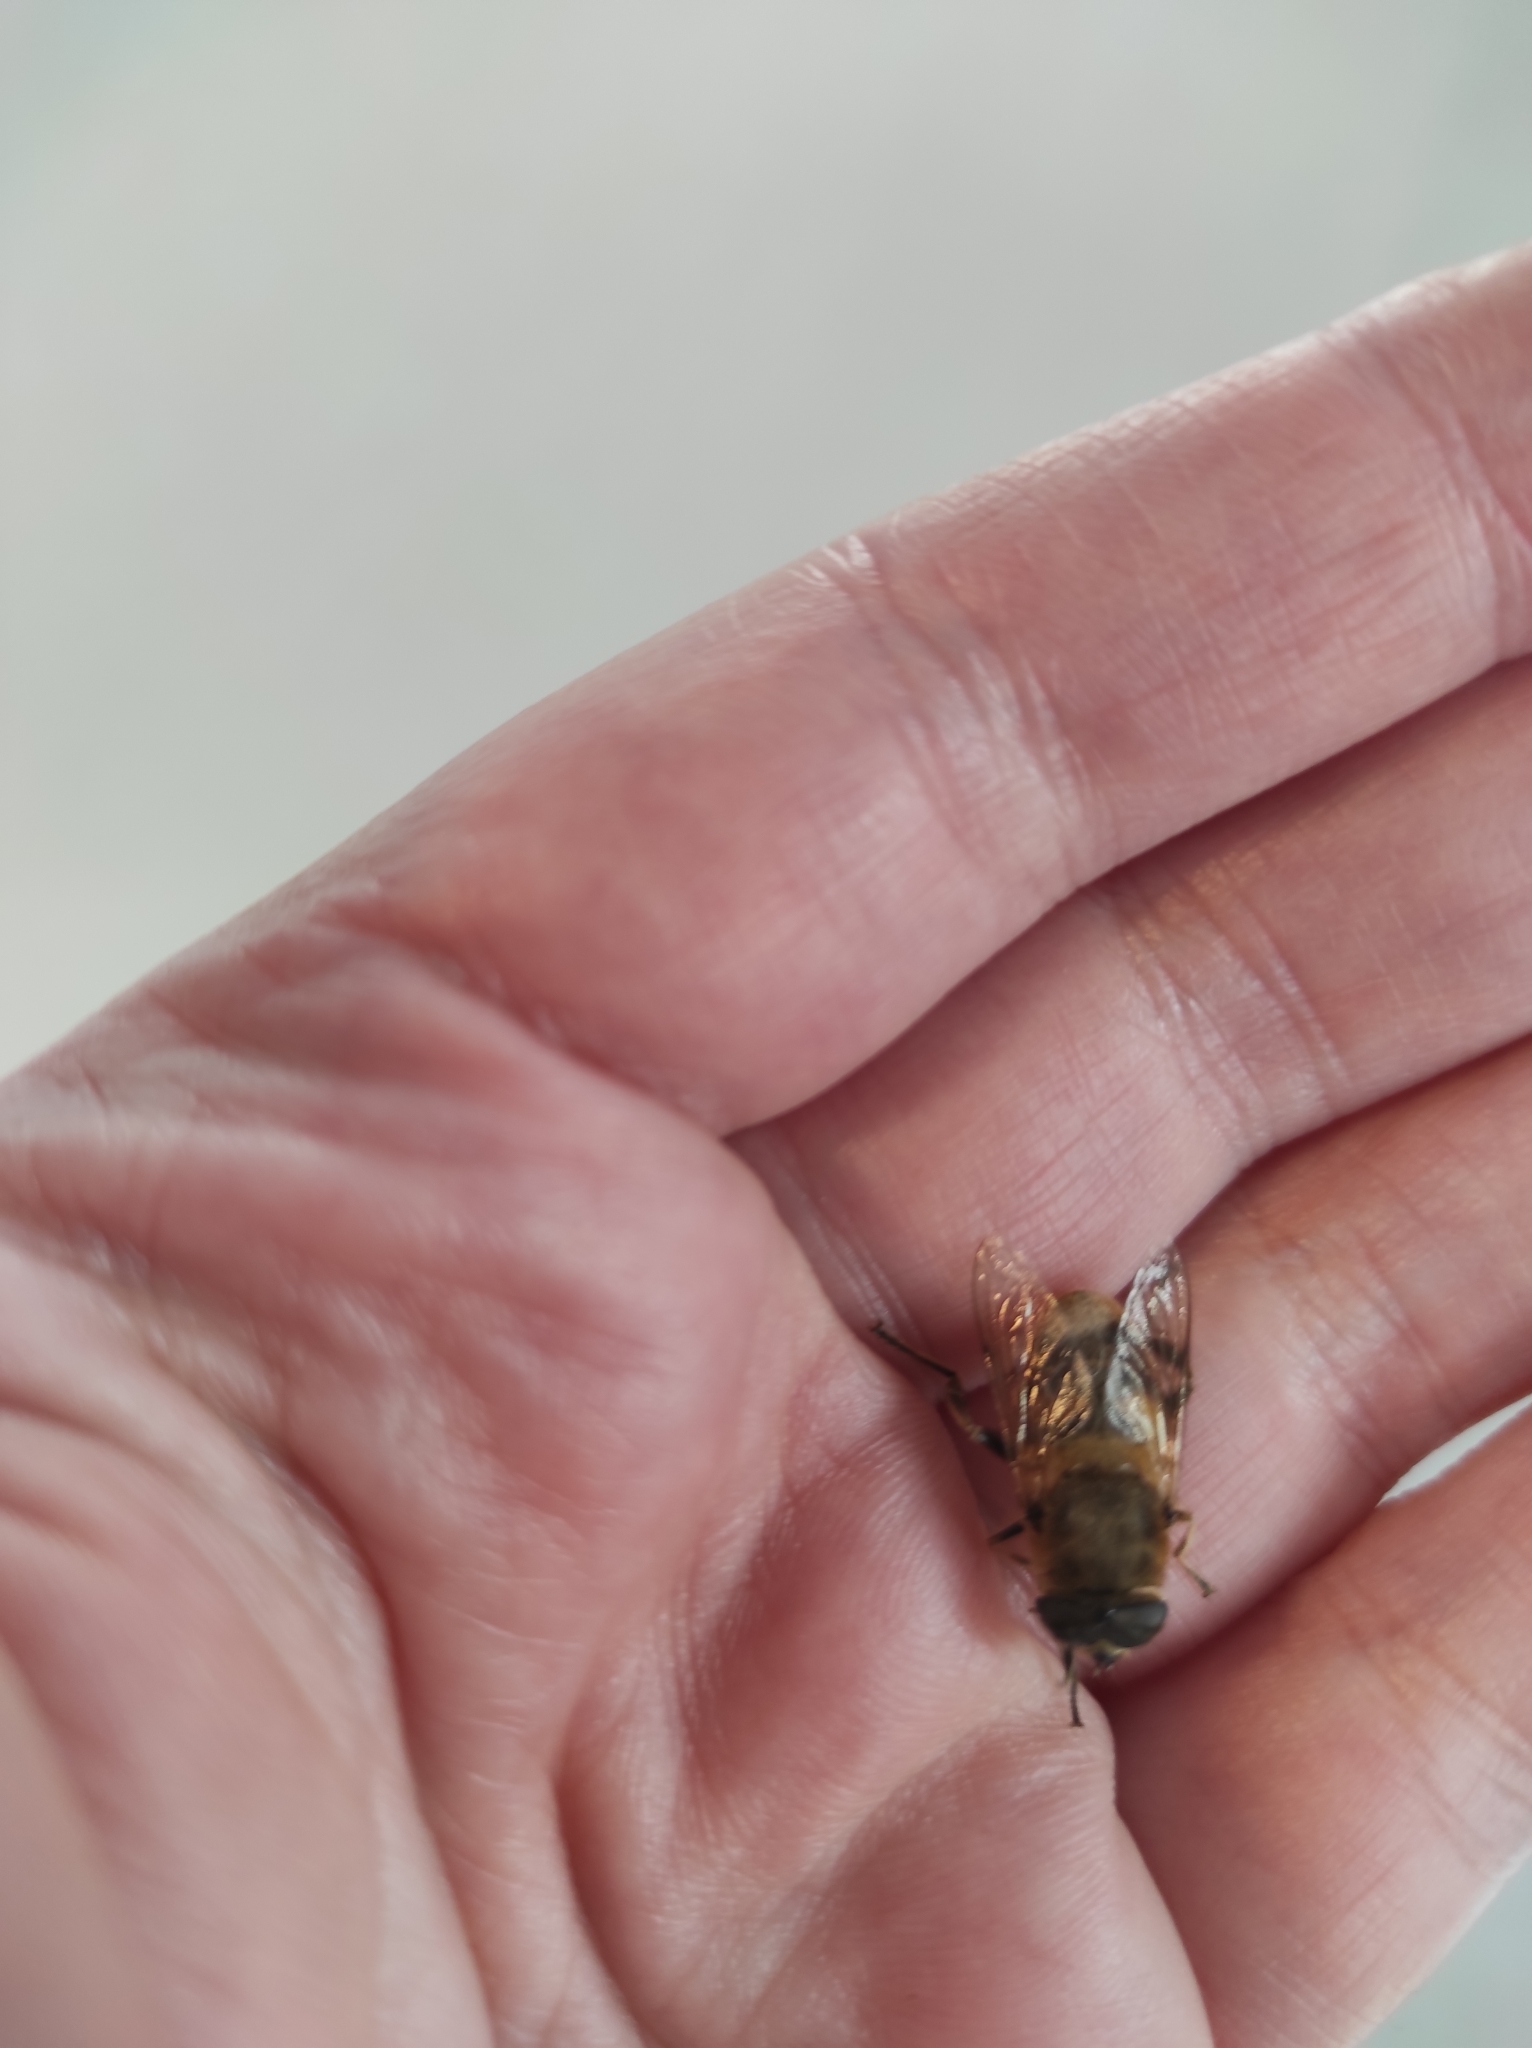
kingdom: Animalia
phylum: Arthropoda
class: Insecta
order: Diptera
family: Syrphidae
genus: Eristalis
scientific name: Eristalis tenax
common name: Drone fly
